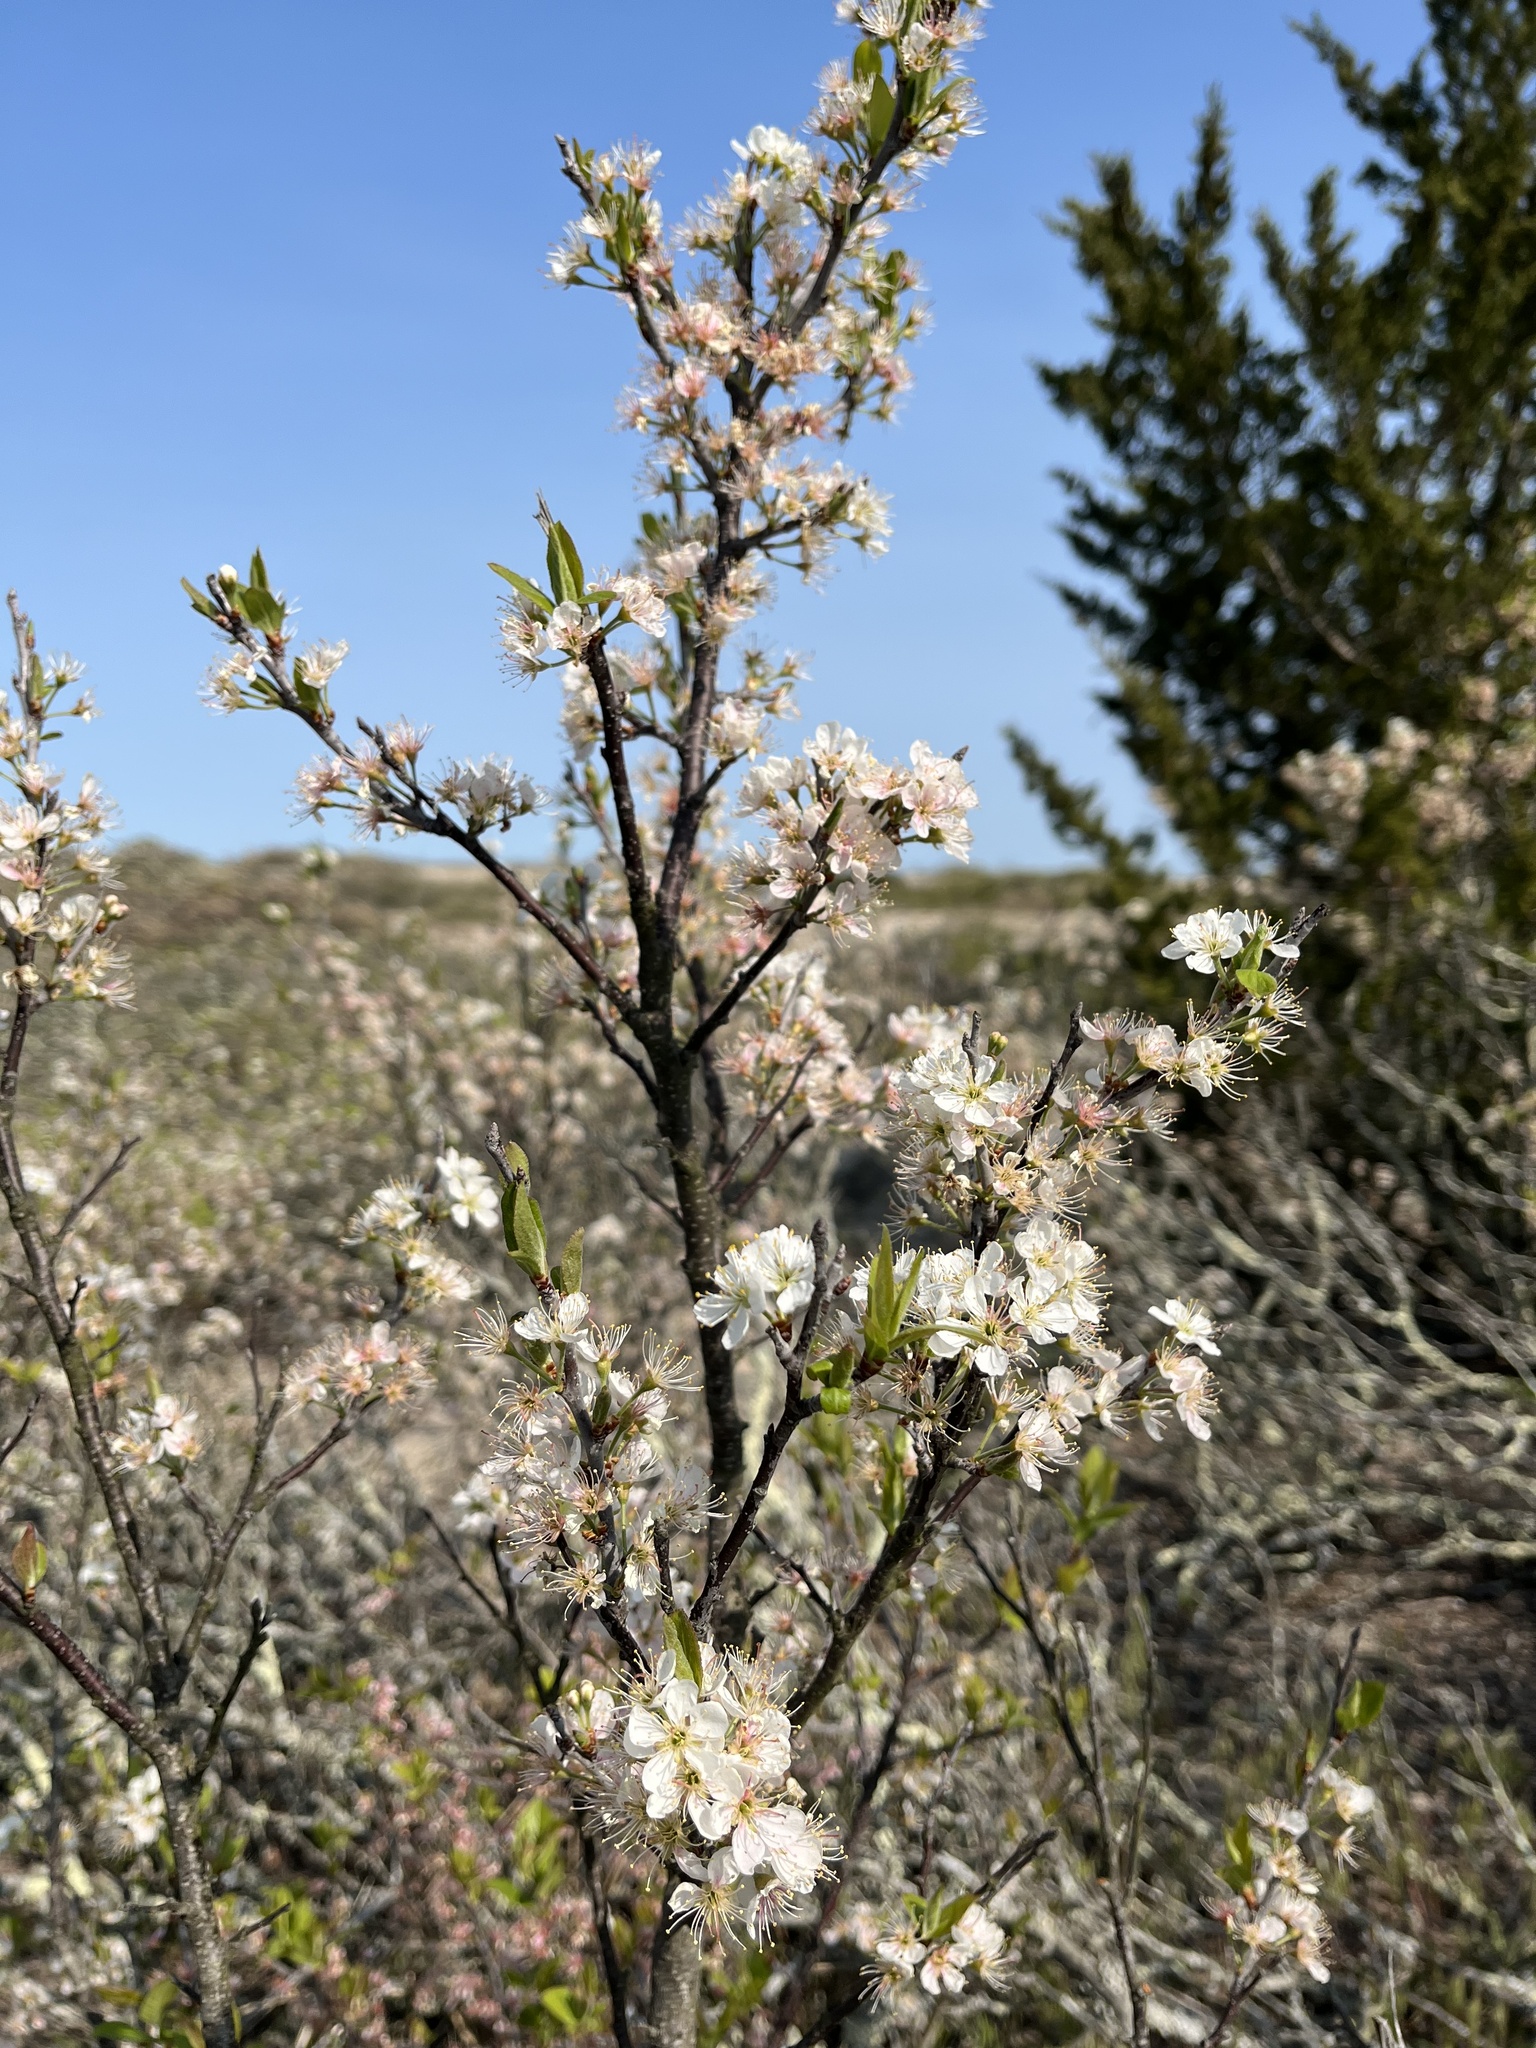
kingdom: Plantae
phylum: Tracheophyta
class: Magnoliopsida
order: Rosales
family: Rosaceae
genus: Prunus
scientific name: Prunus maritima
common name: Beach plum
